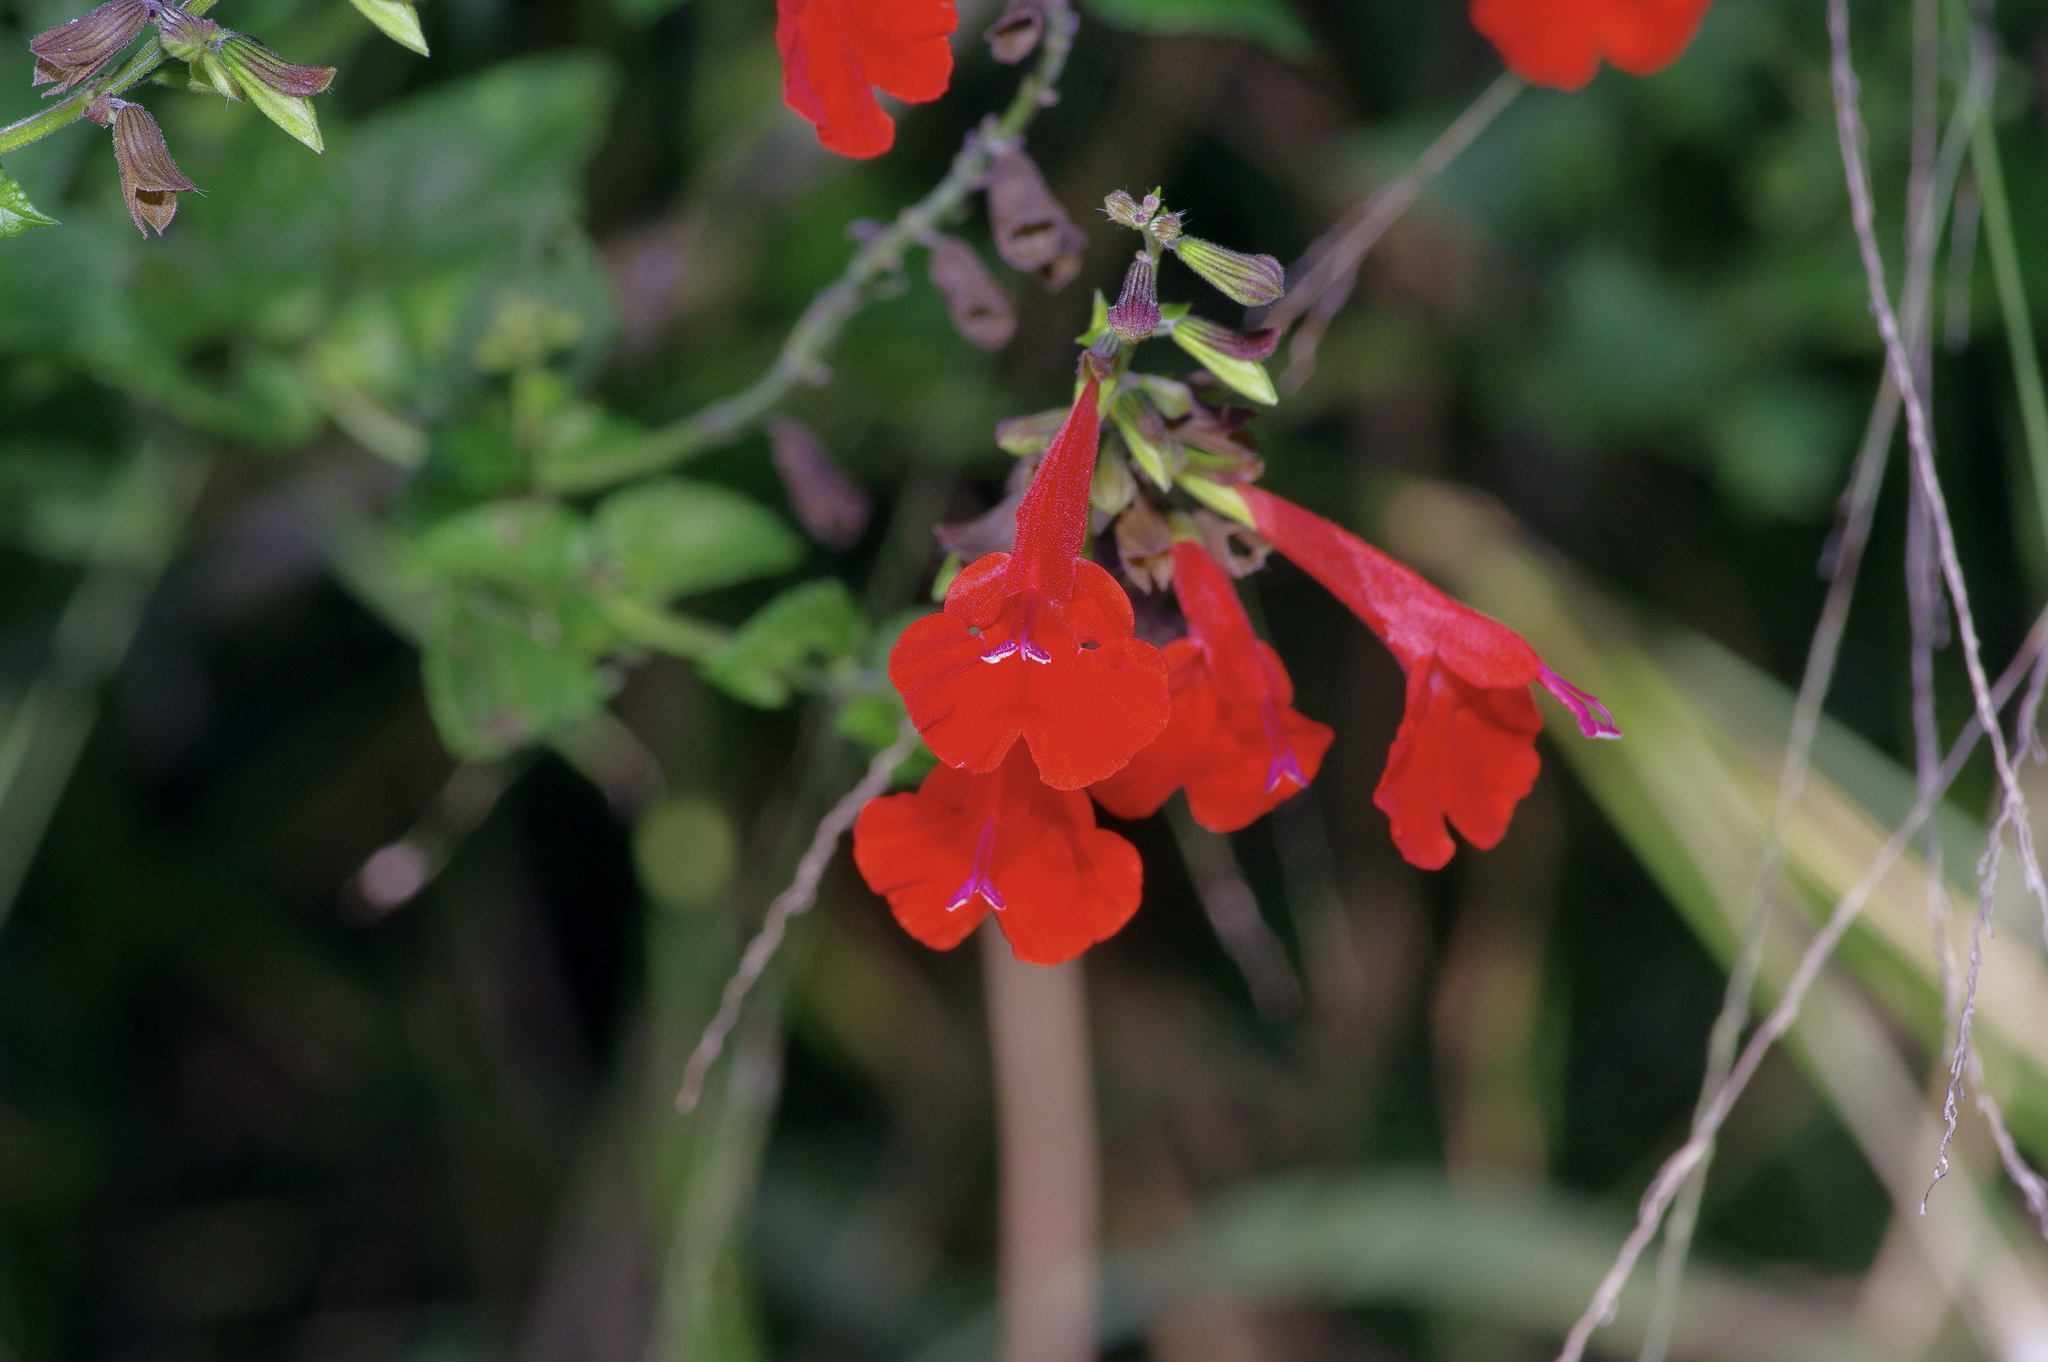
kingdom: Plantae
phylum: Tracheophyta
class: Magnoliopsida
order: Lamiales
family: Lamiaceae
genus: Salvia
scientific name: Salvia coccinea
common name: Blood sage
